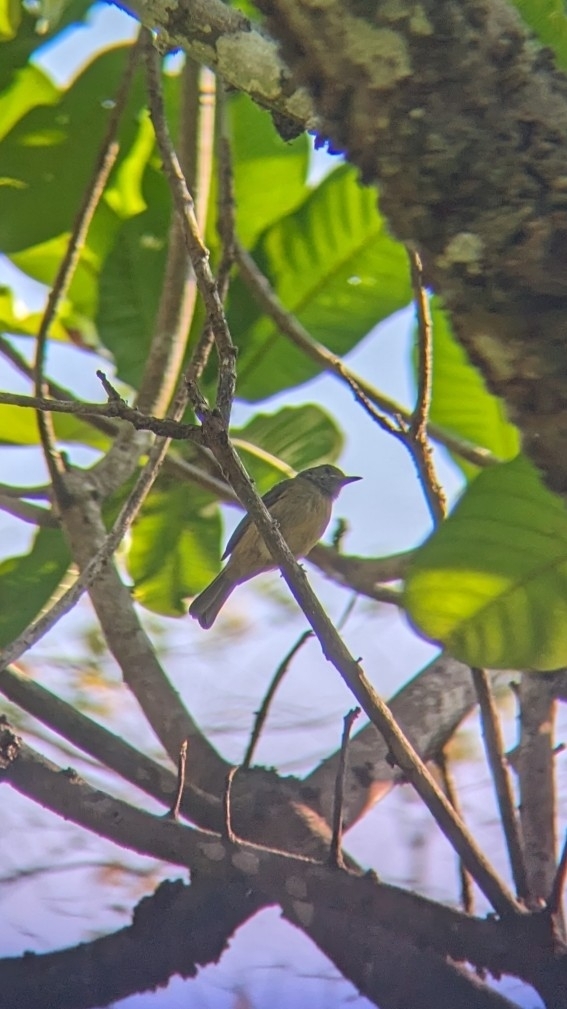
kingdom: Animalia
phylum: Chordata
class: Aves
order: Passeriformes
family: Tyrannidae
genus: Mionectes
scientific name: Mionectes oleagineus
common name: Ochre-bellied flycatcher
